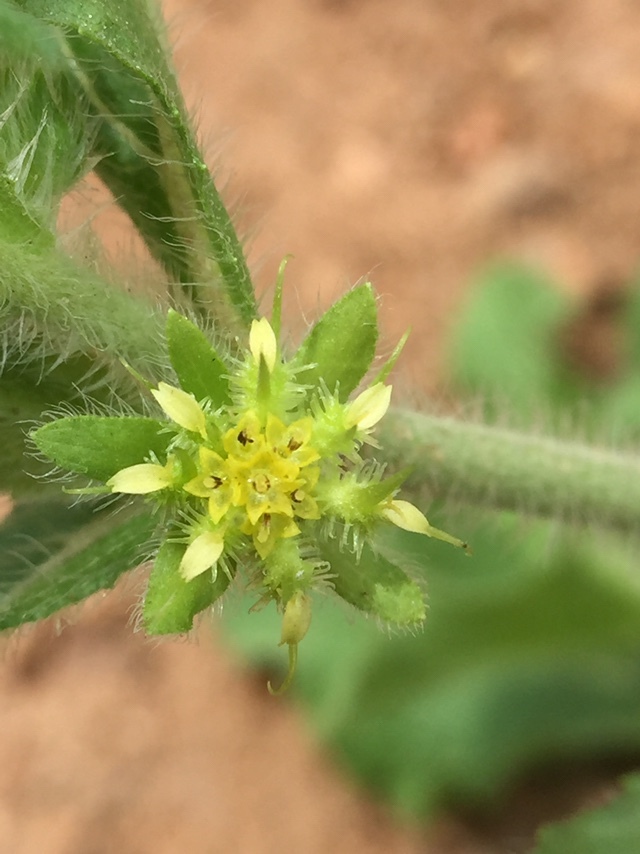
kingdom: Plantae
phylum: Tracheophyta
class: Magnoliopsida
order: Asterales
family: Asteraceae
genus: Acanthospermum
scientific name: Acanthospermum hispidum
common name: Hispid starbur
